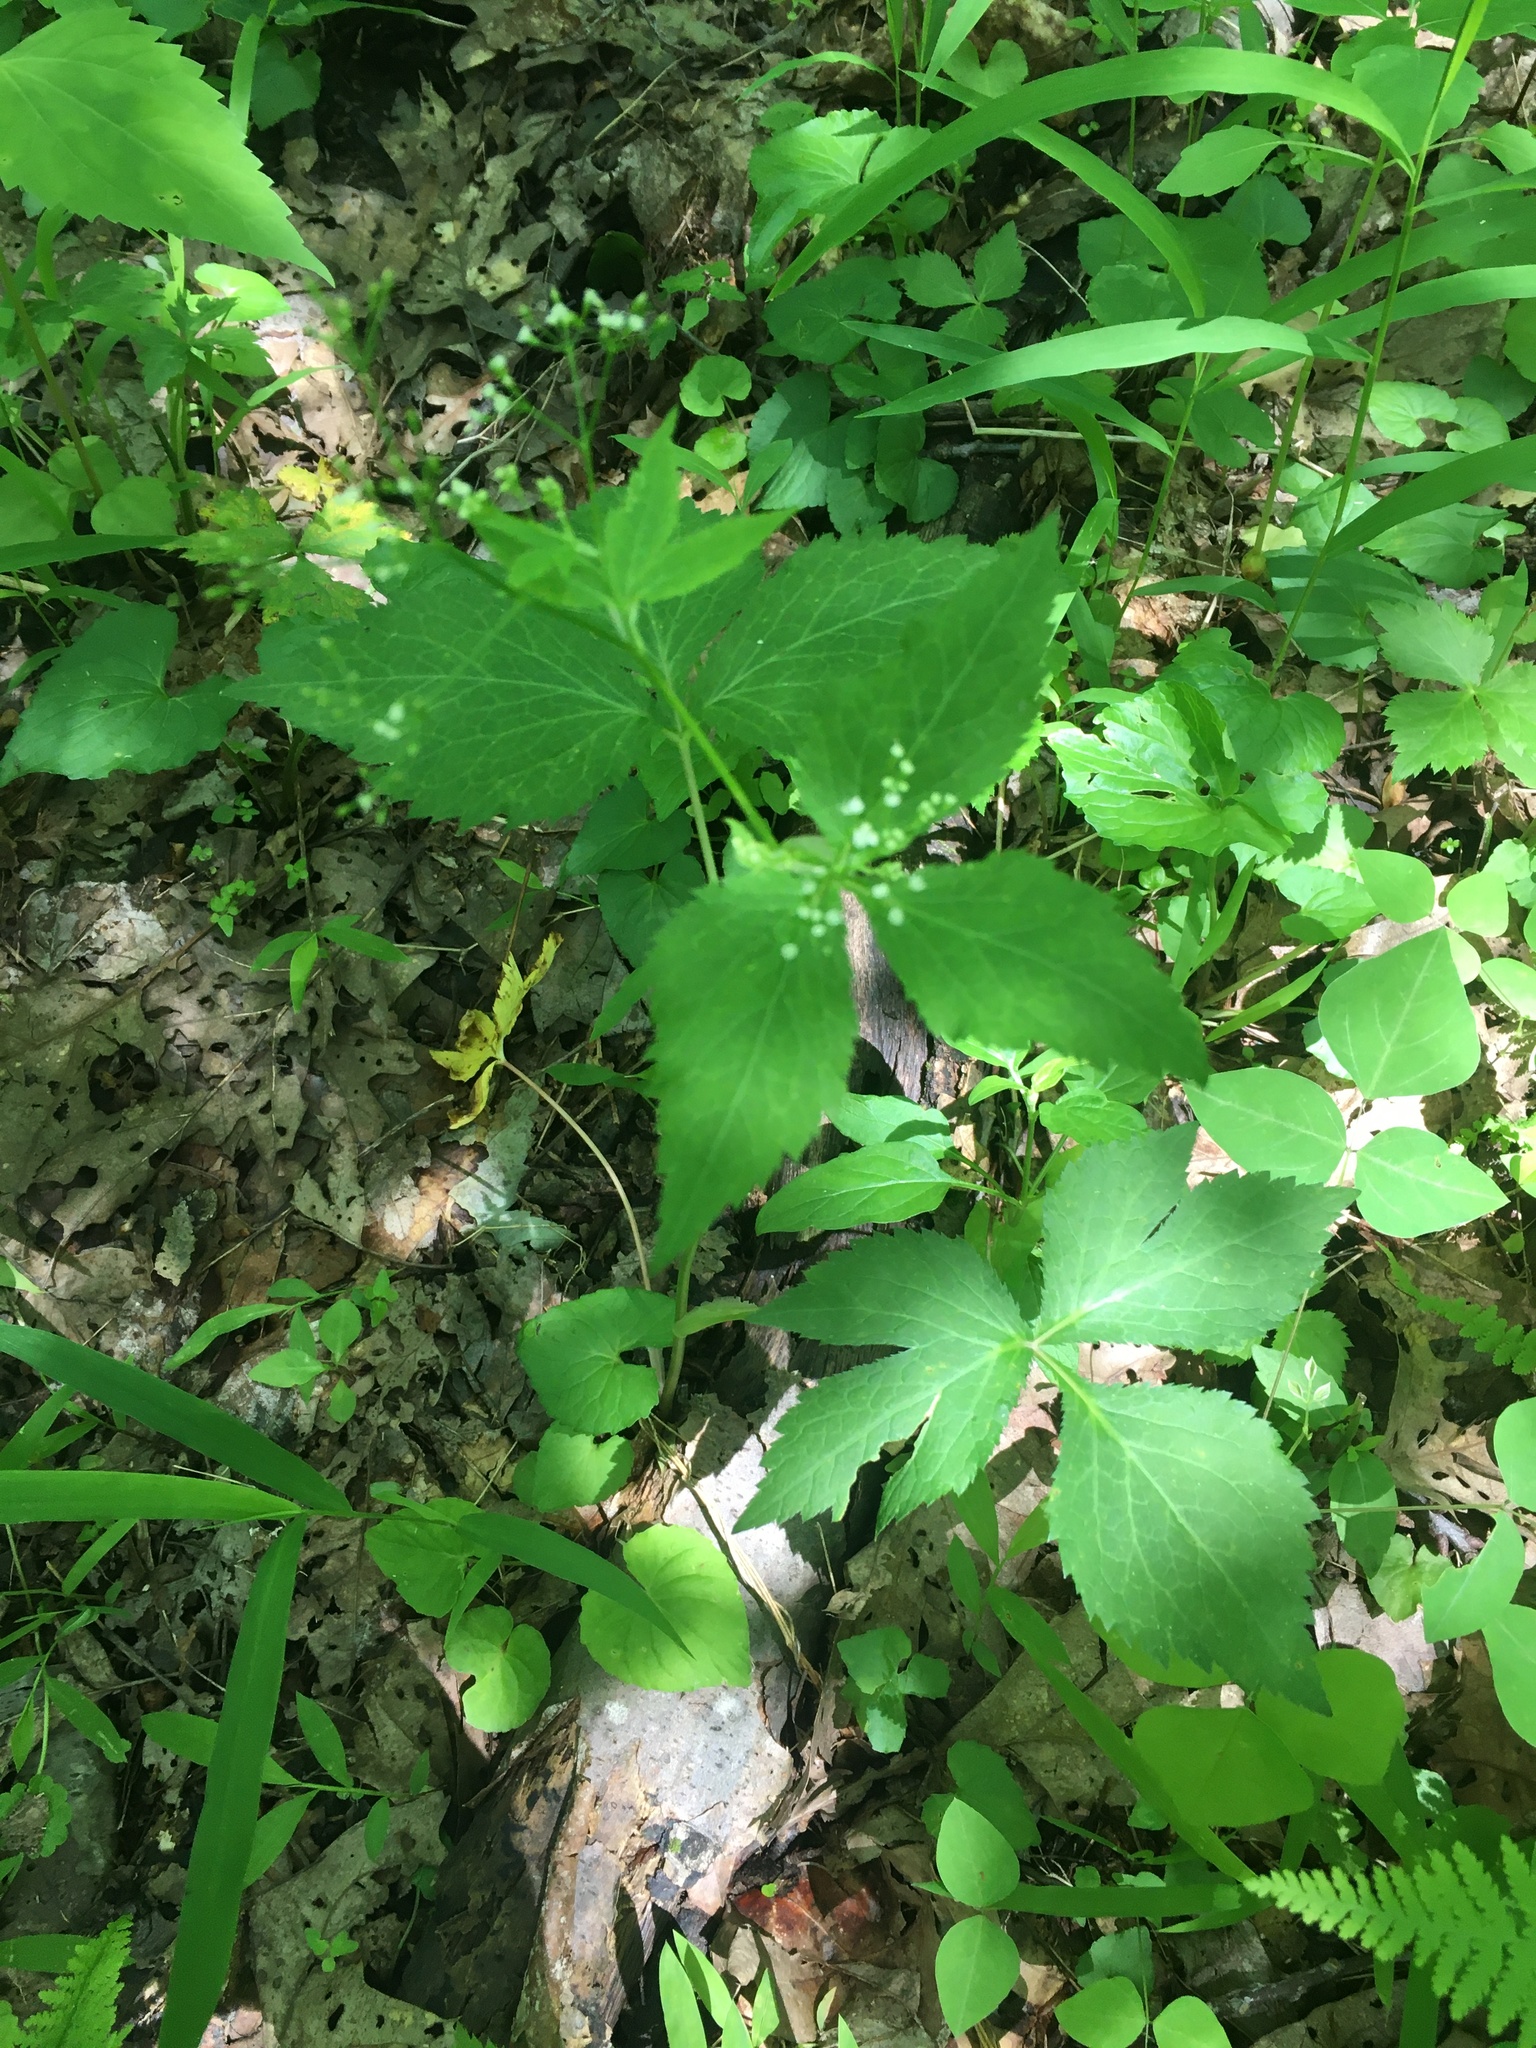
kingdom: Plantae
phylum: Tracheophyta
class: Magnoliopsida
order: Apiales
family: Apiaceae
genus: Cryptotaenia
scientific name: Cryptotaenia canadensis
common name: Honewort
